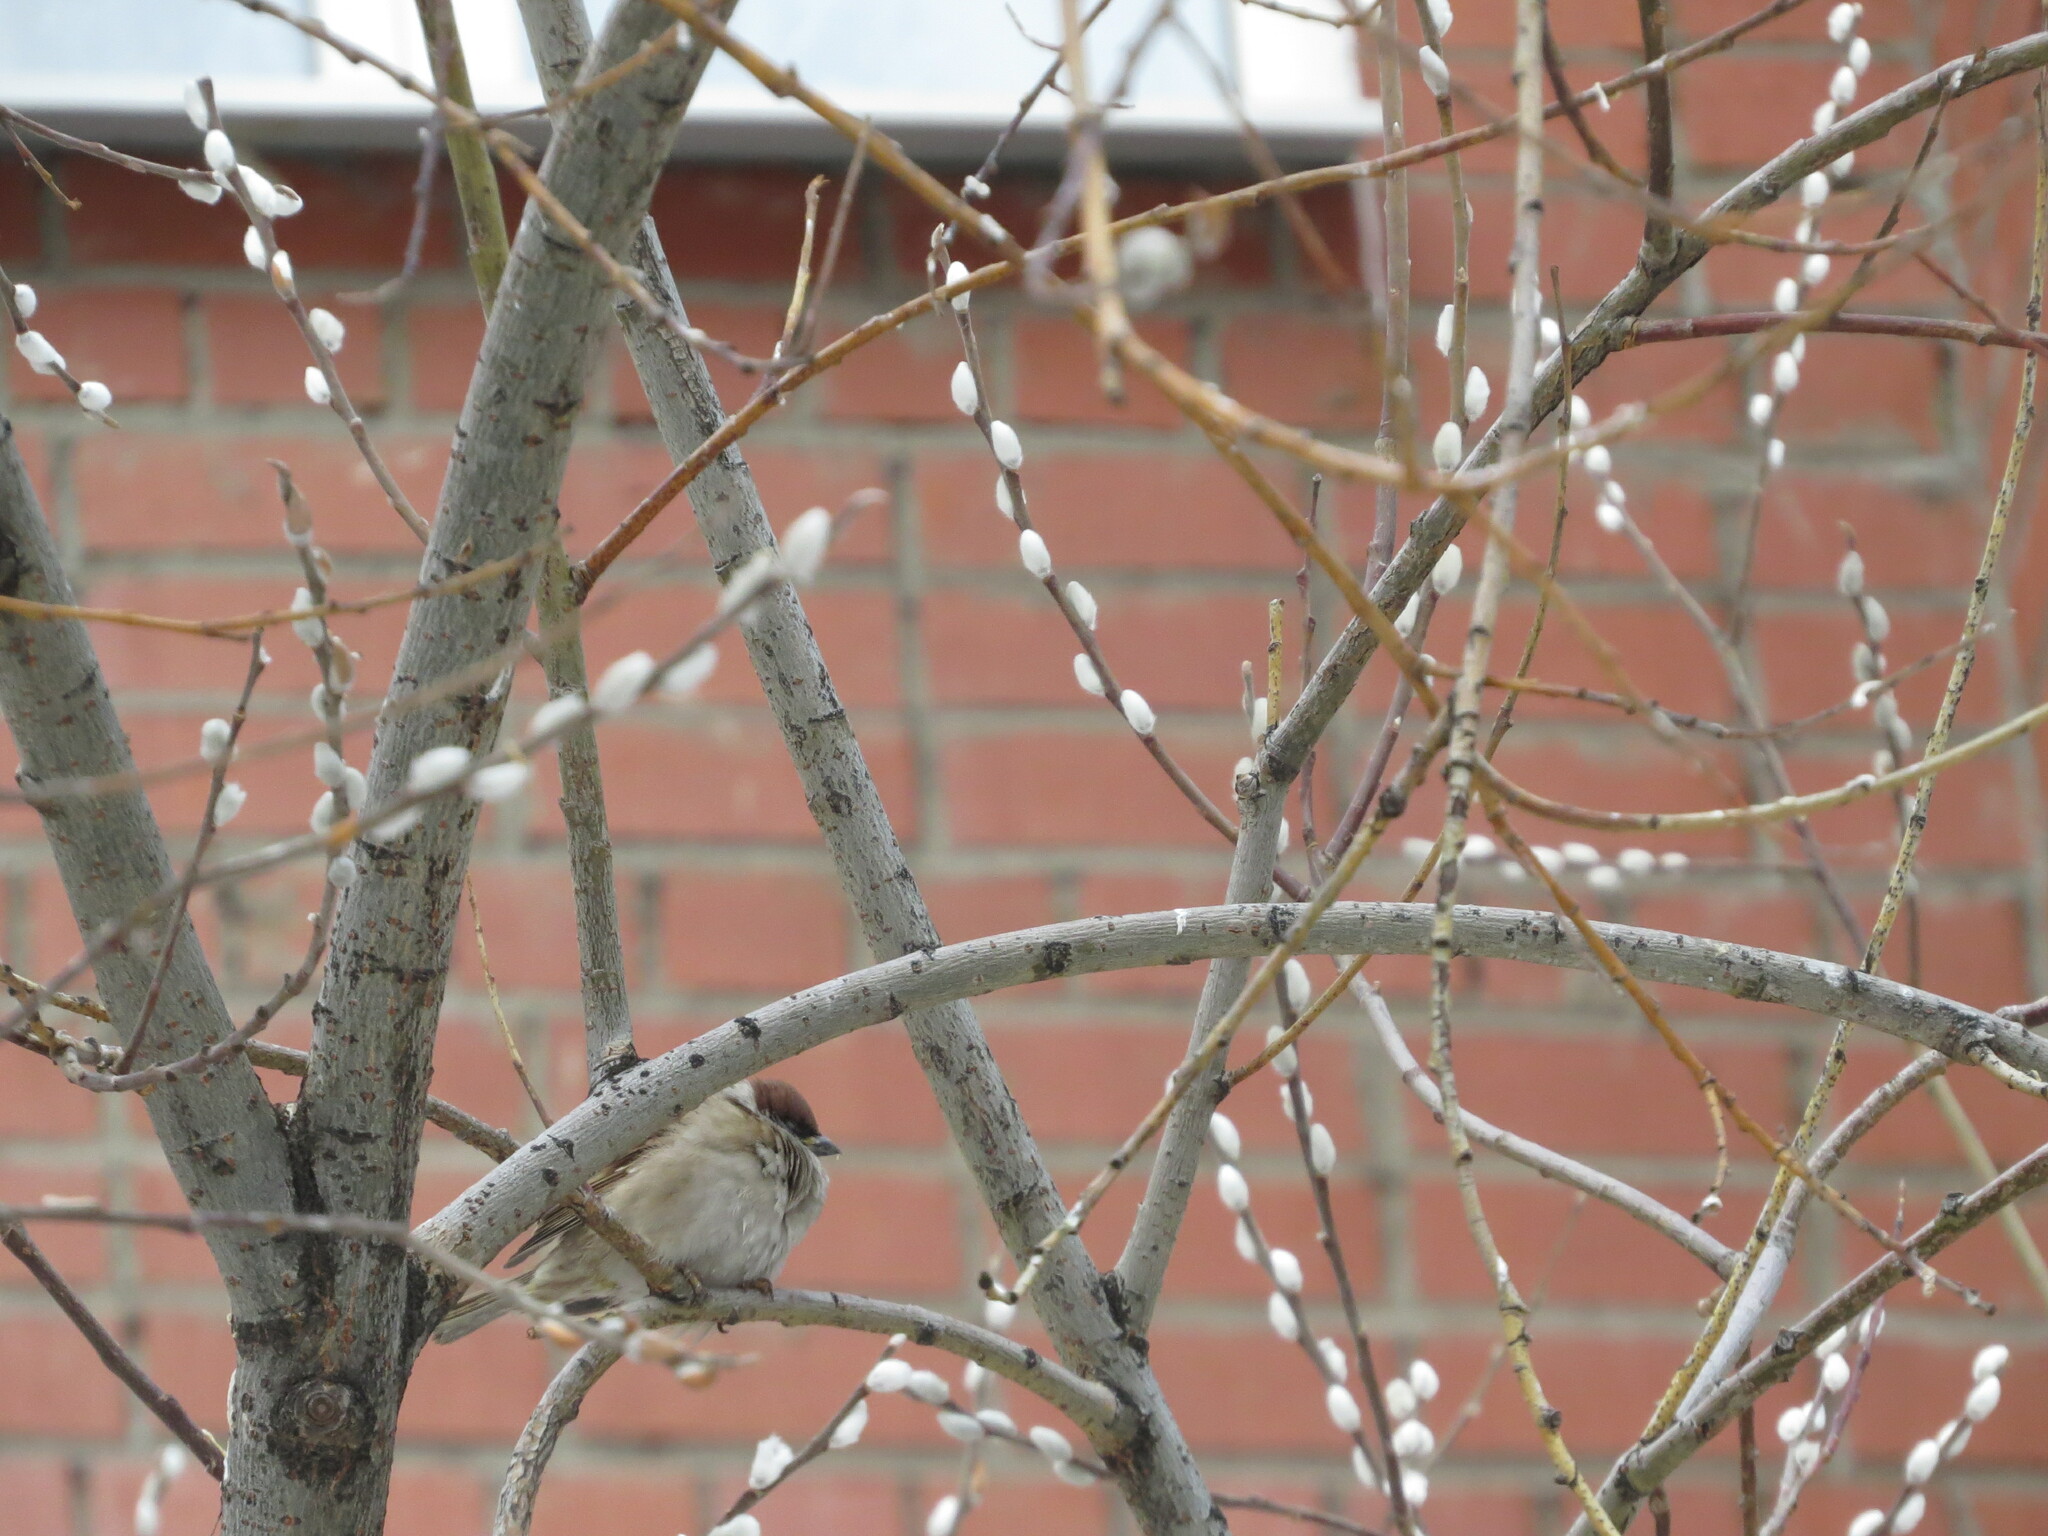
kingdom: Animalia
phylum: Chordata
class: Aves
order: Passeriformes
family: Passeridae
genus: Passer
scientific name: Passer montanus
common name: Eurasian tree sparrow
